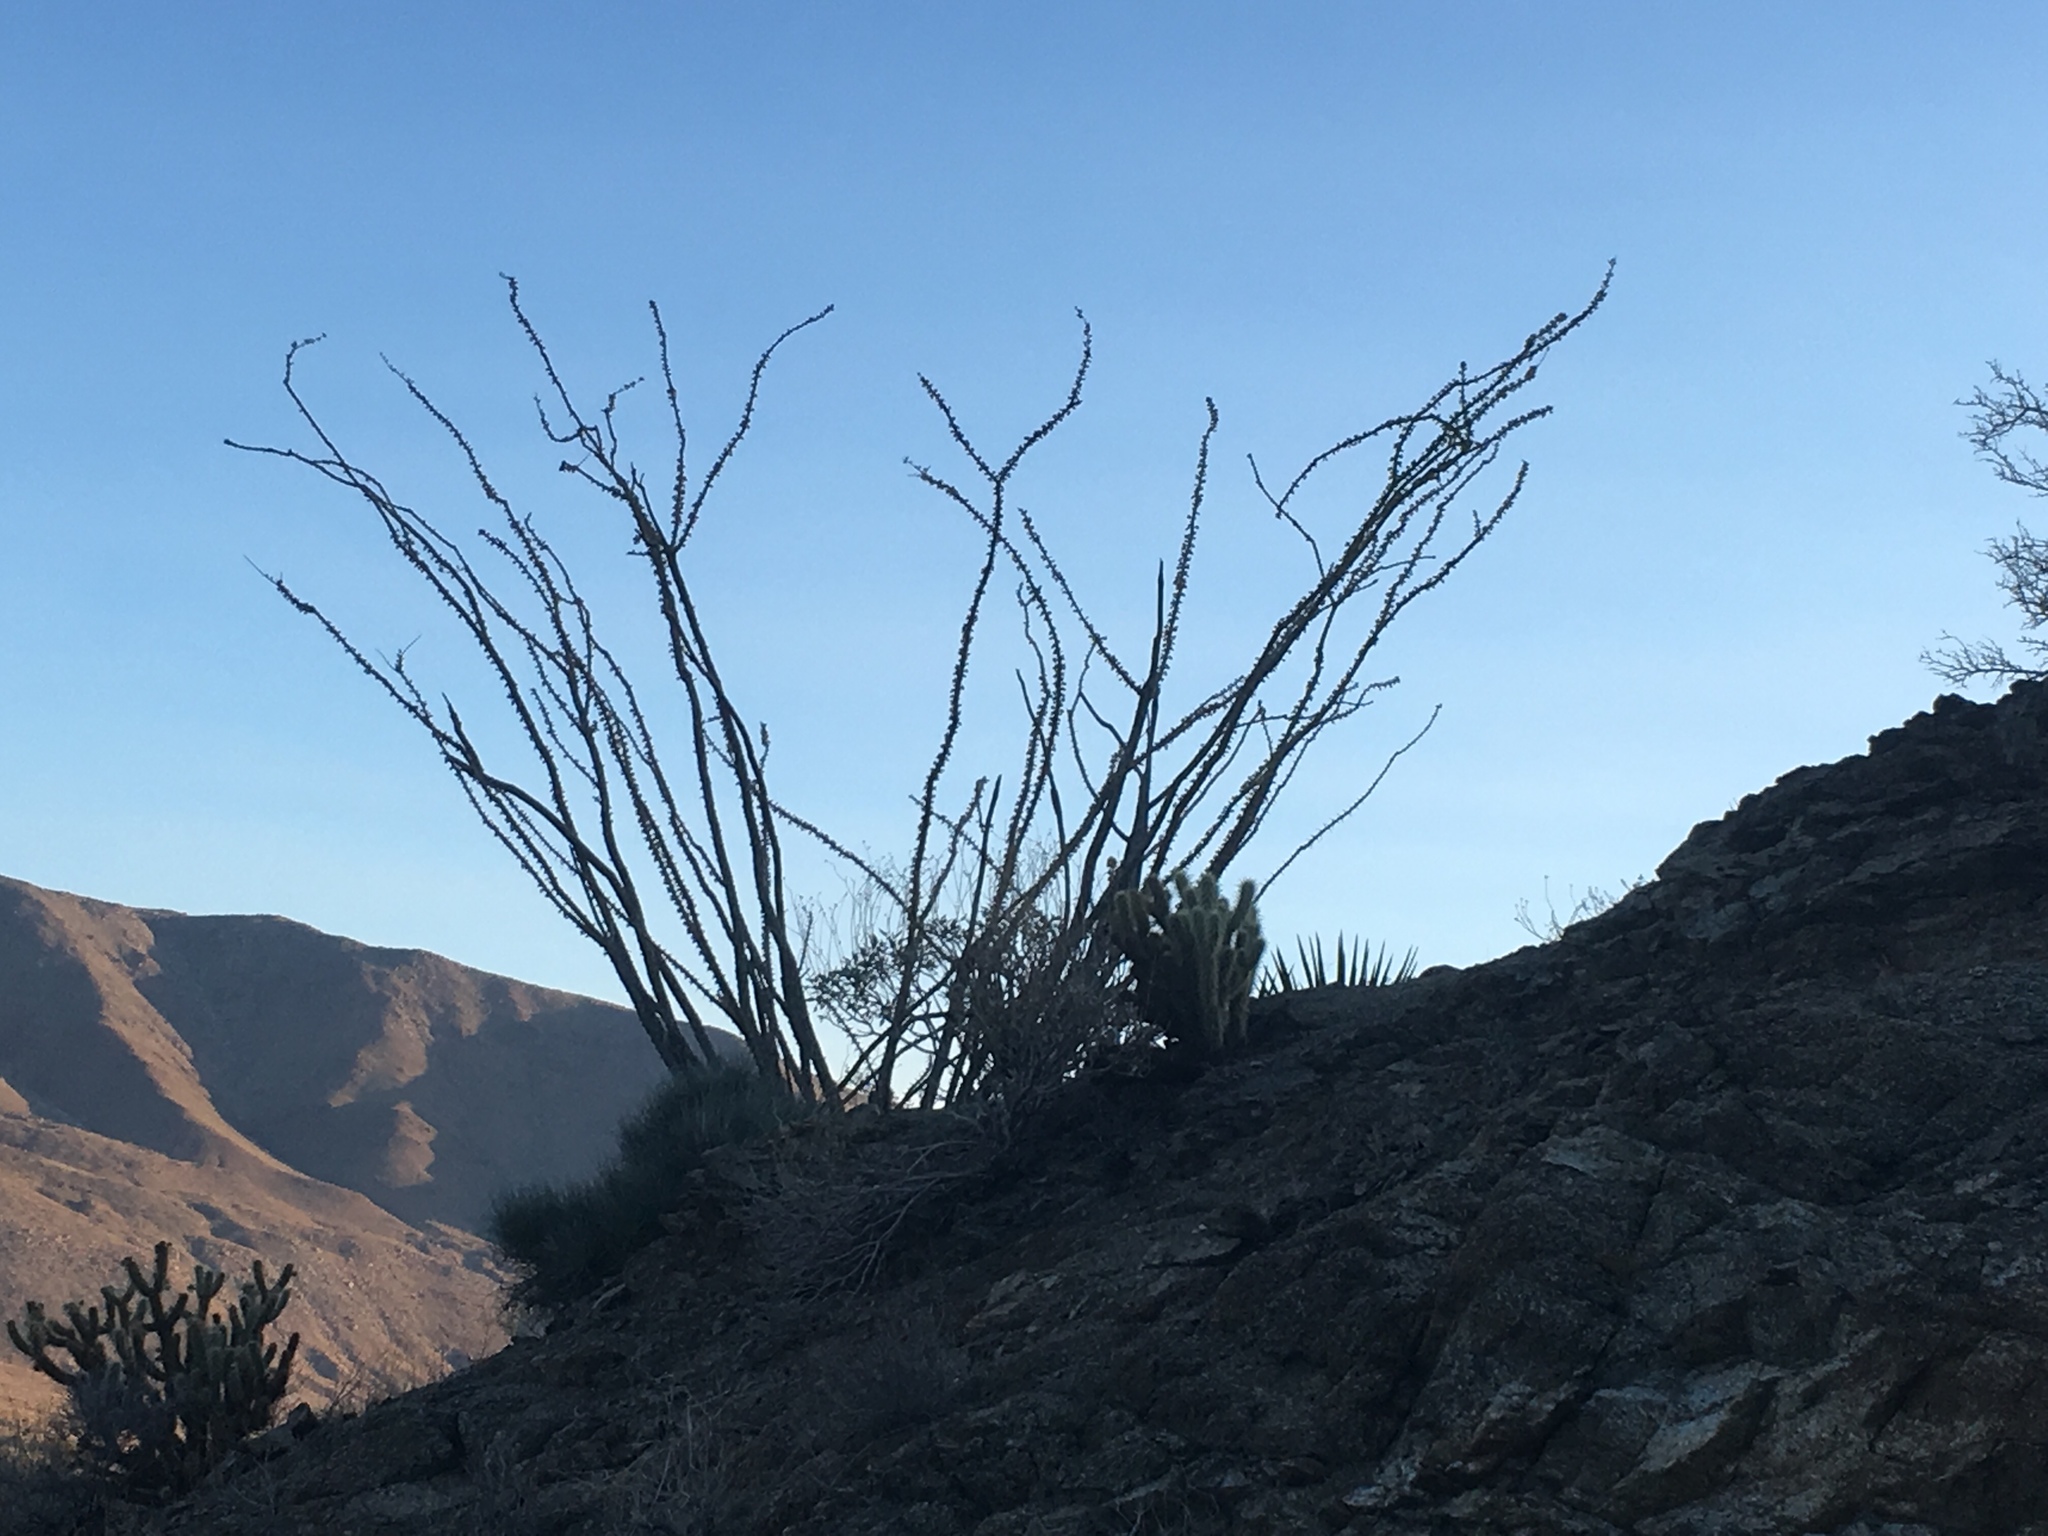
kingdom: Plantae
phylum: Tracheophyta
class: Magnoliopsida
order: Ericales
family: Fouquieriaceae
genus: Fouquieria
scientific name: Fouquieria splendens
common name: Vine-cactus
